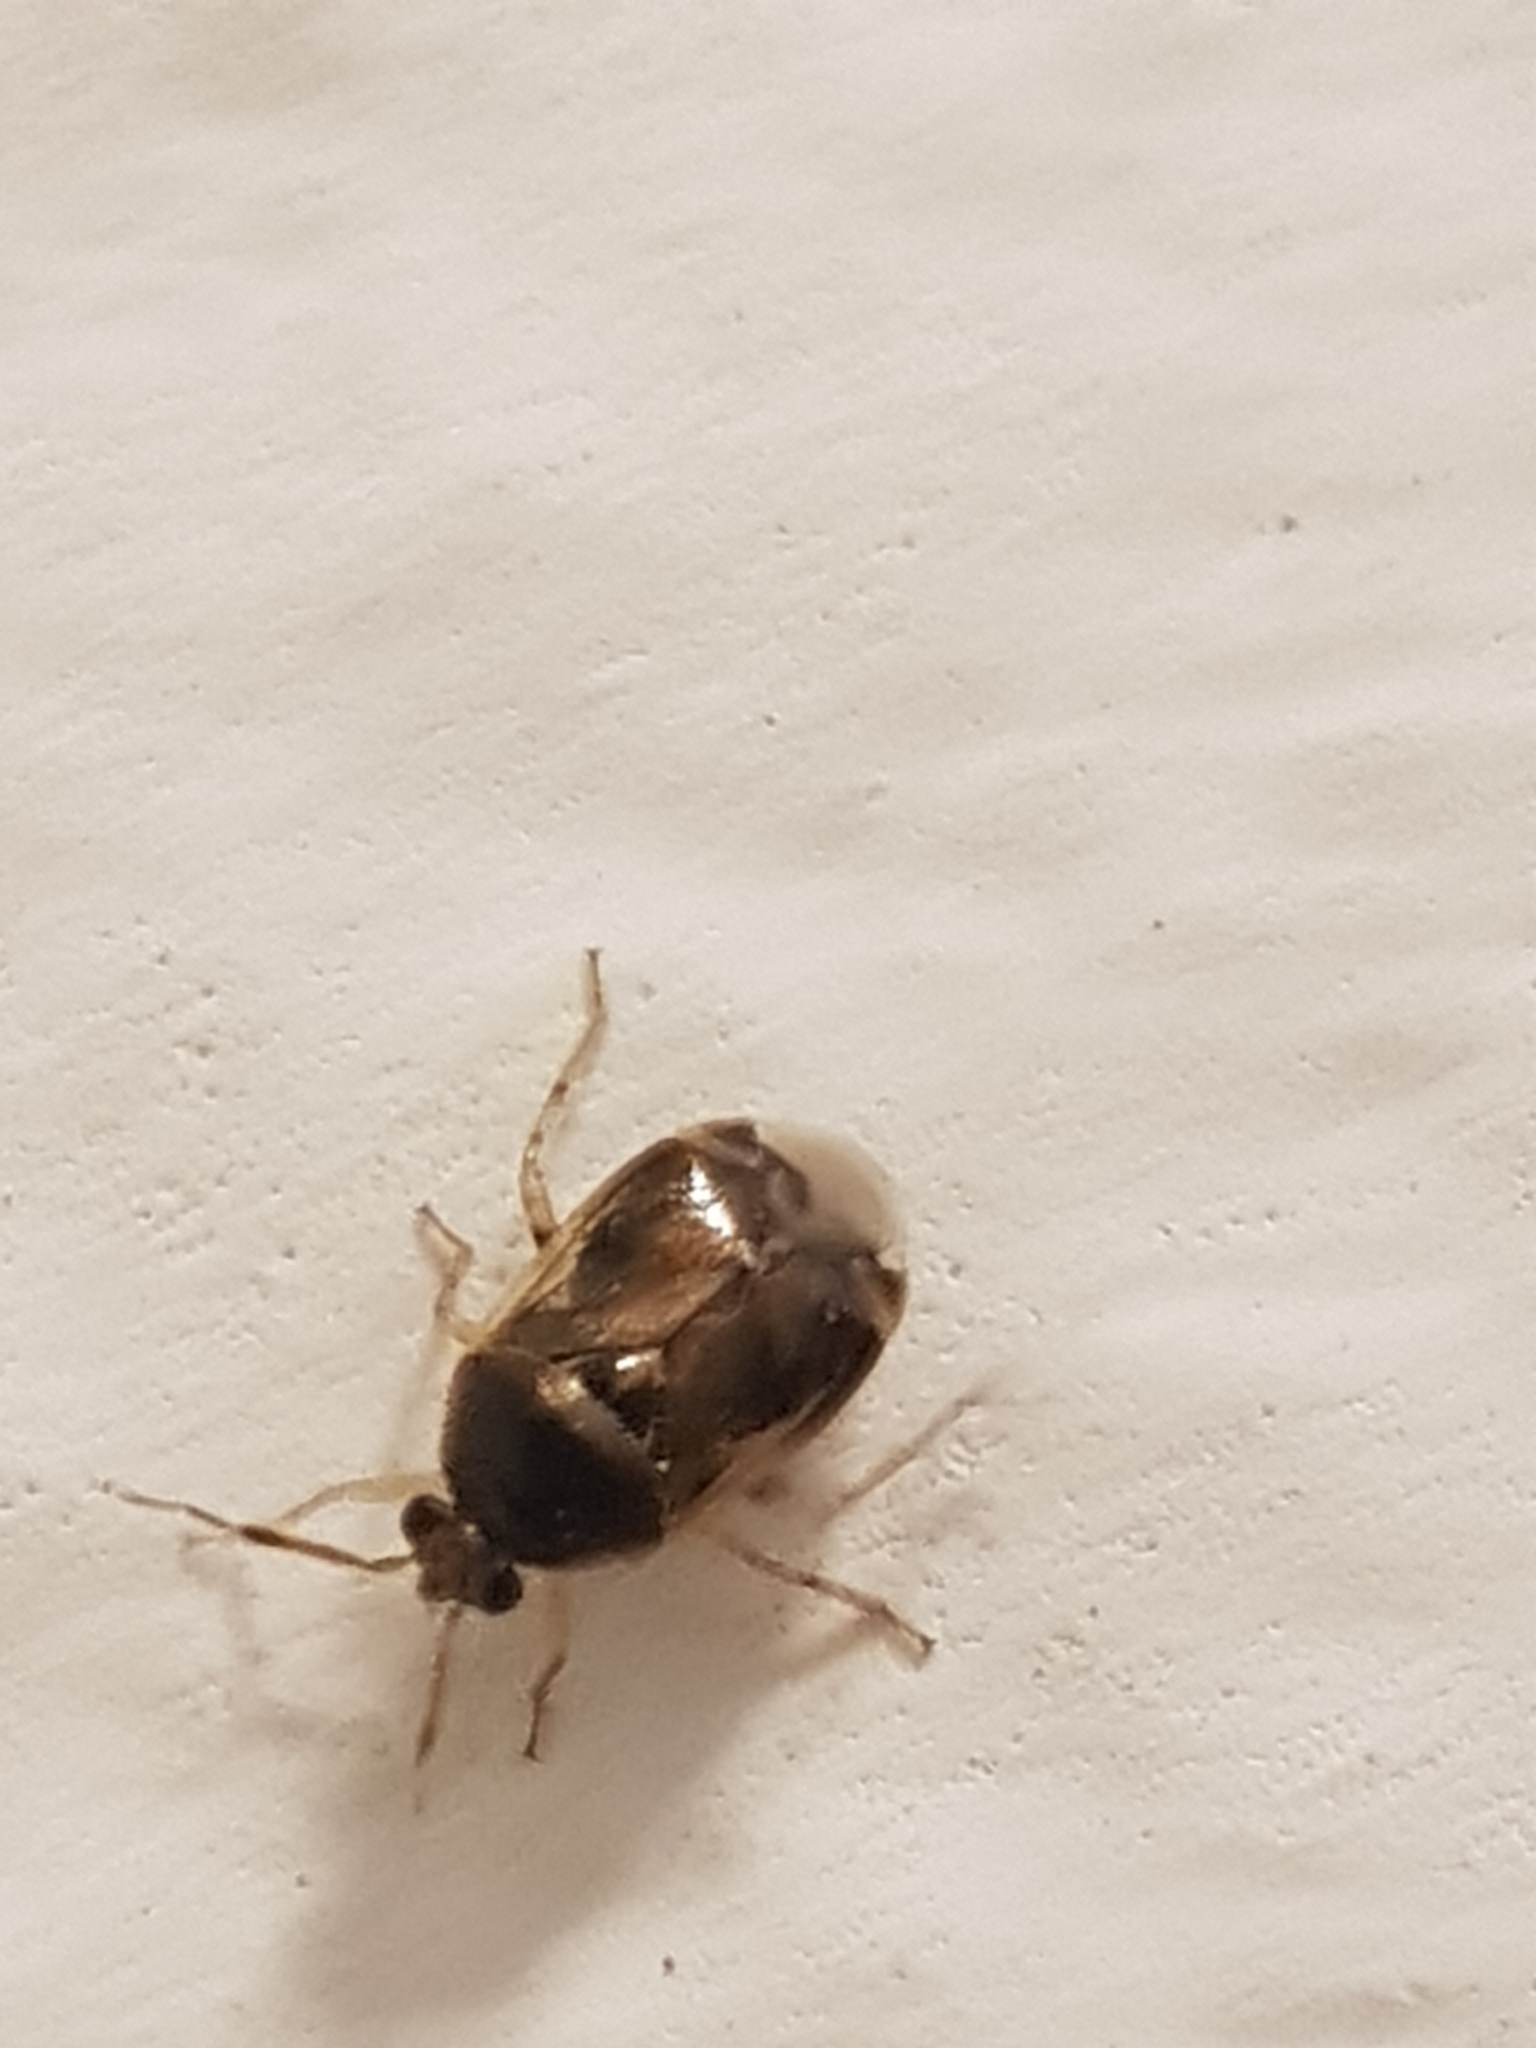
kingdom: Animalia
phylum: Arthropoda
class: Insecta
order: Hemiptera
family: Miridae
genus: Deraeocoris
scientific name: Deraeocoris lutescens
